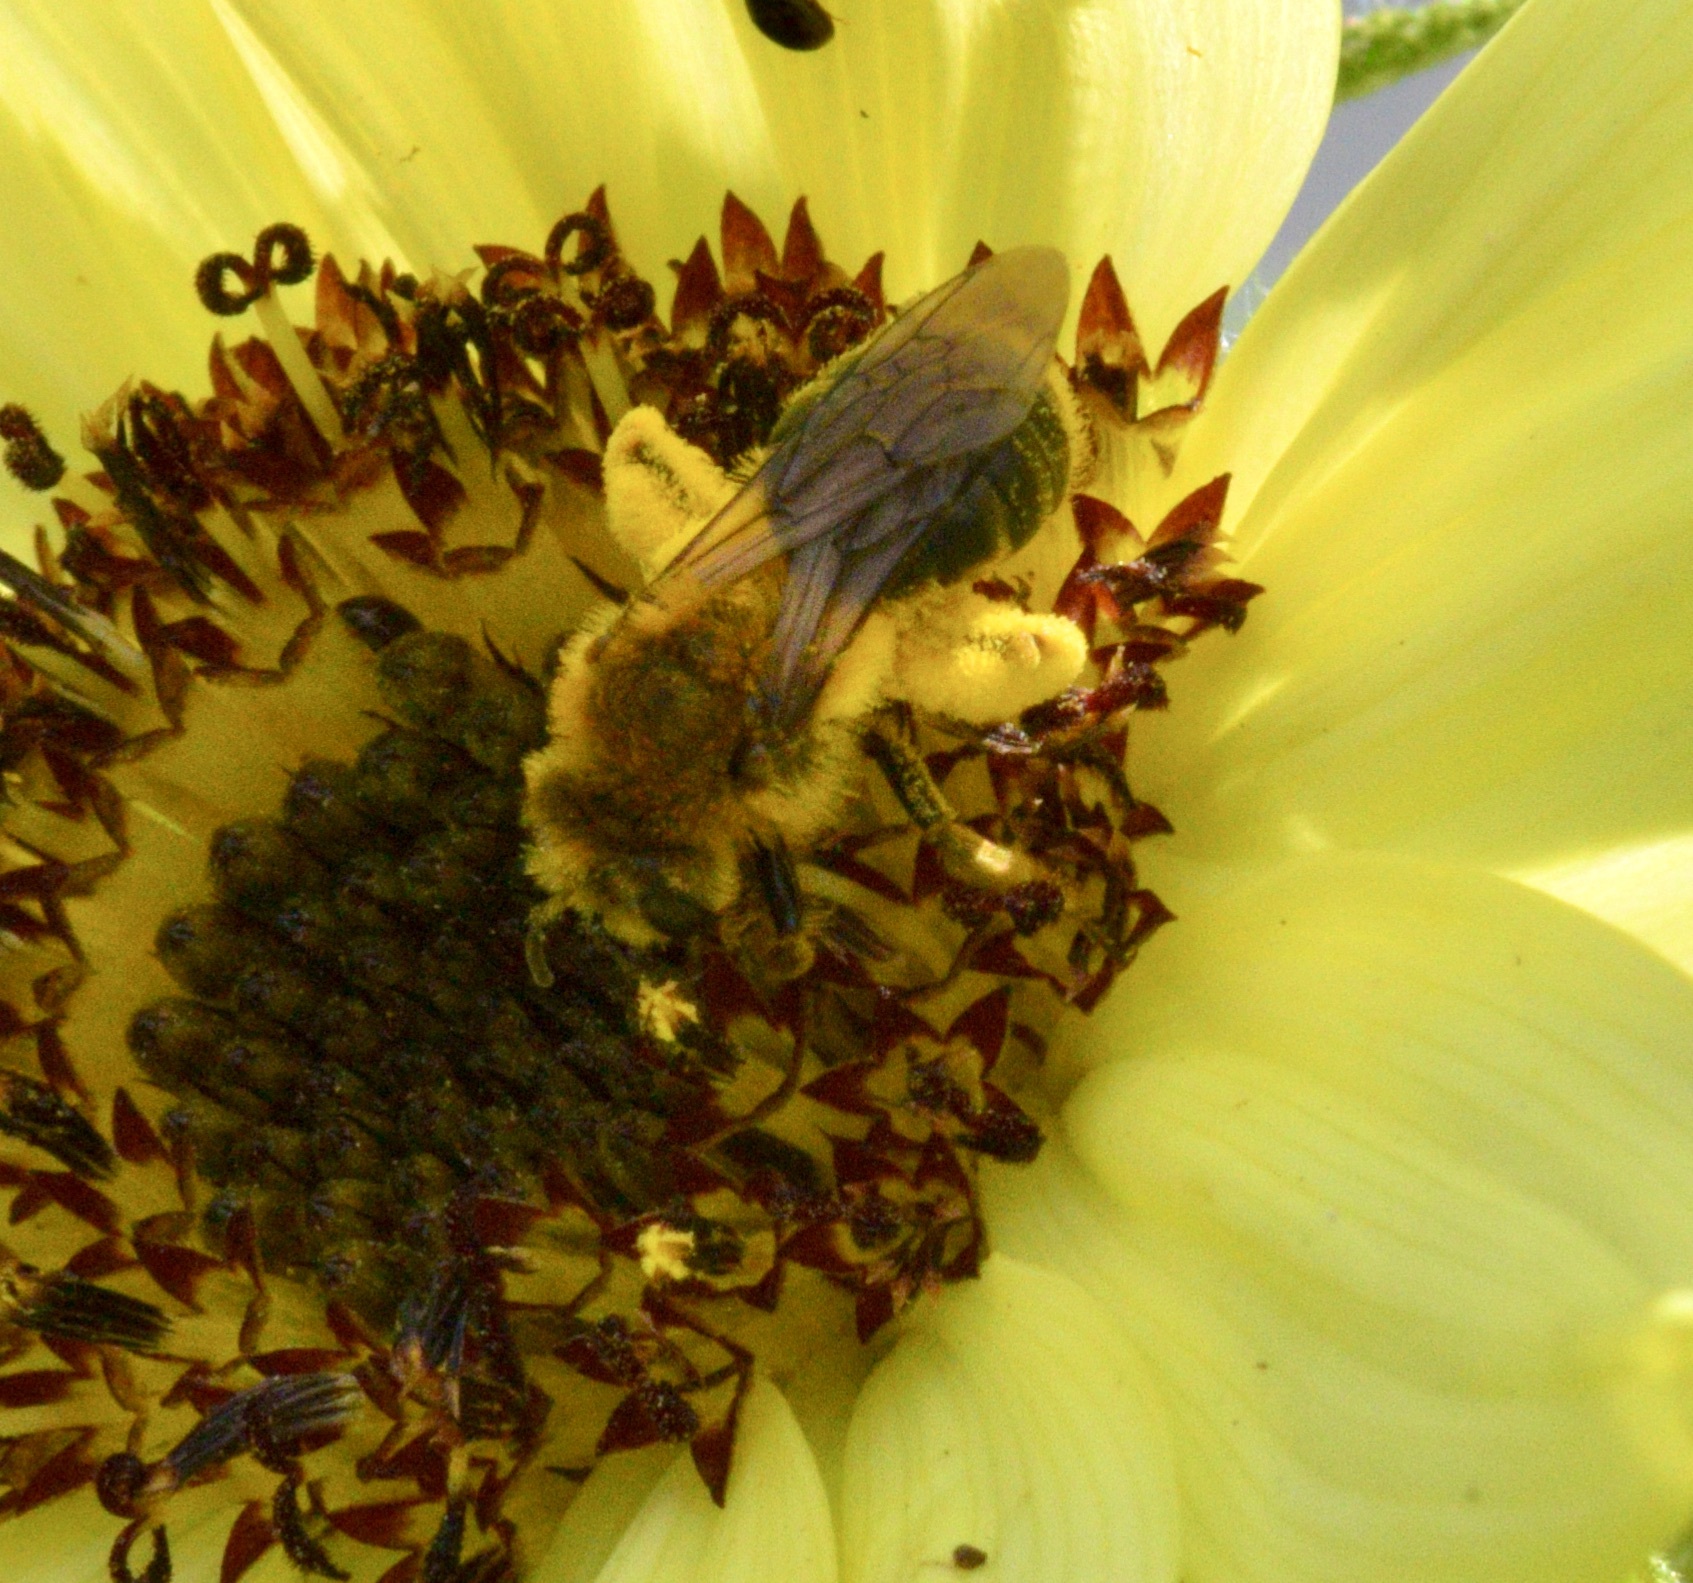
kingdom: Animalia
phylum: Arthropoda
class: Insecta
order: Hymenoptera
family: Andrenidae
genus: Andrena
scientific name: Andrena helianthi
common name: Sunflower mining bee
